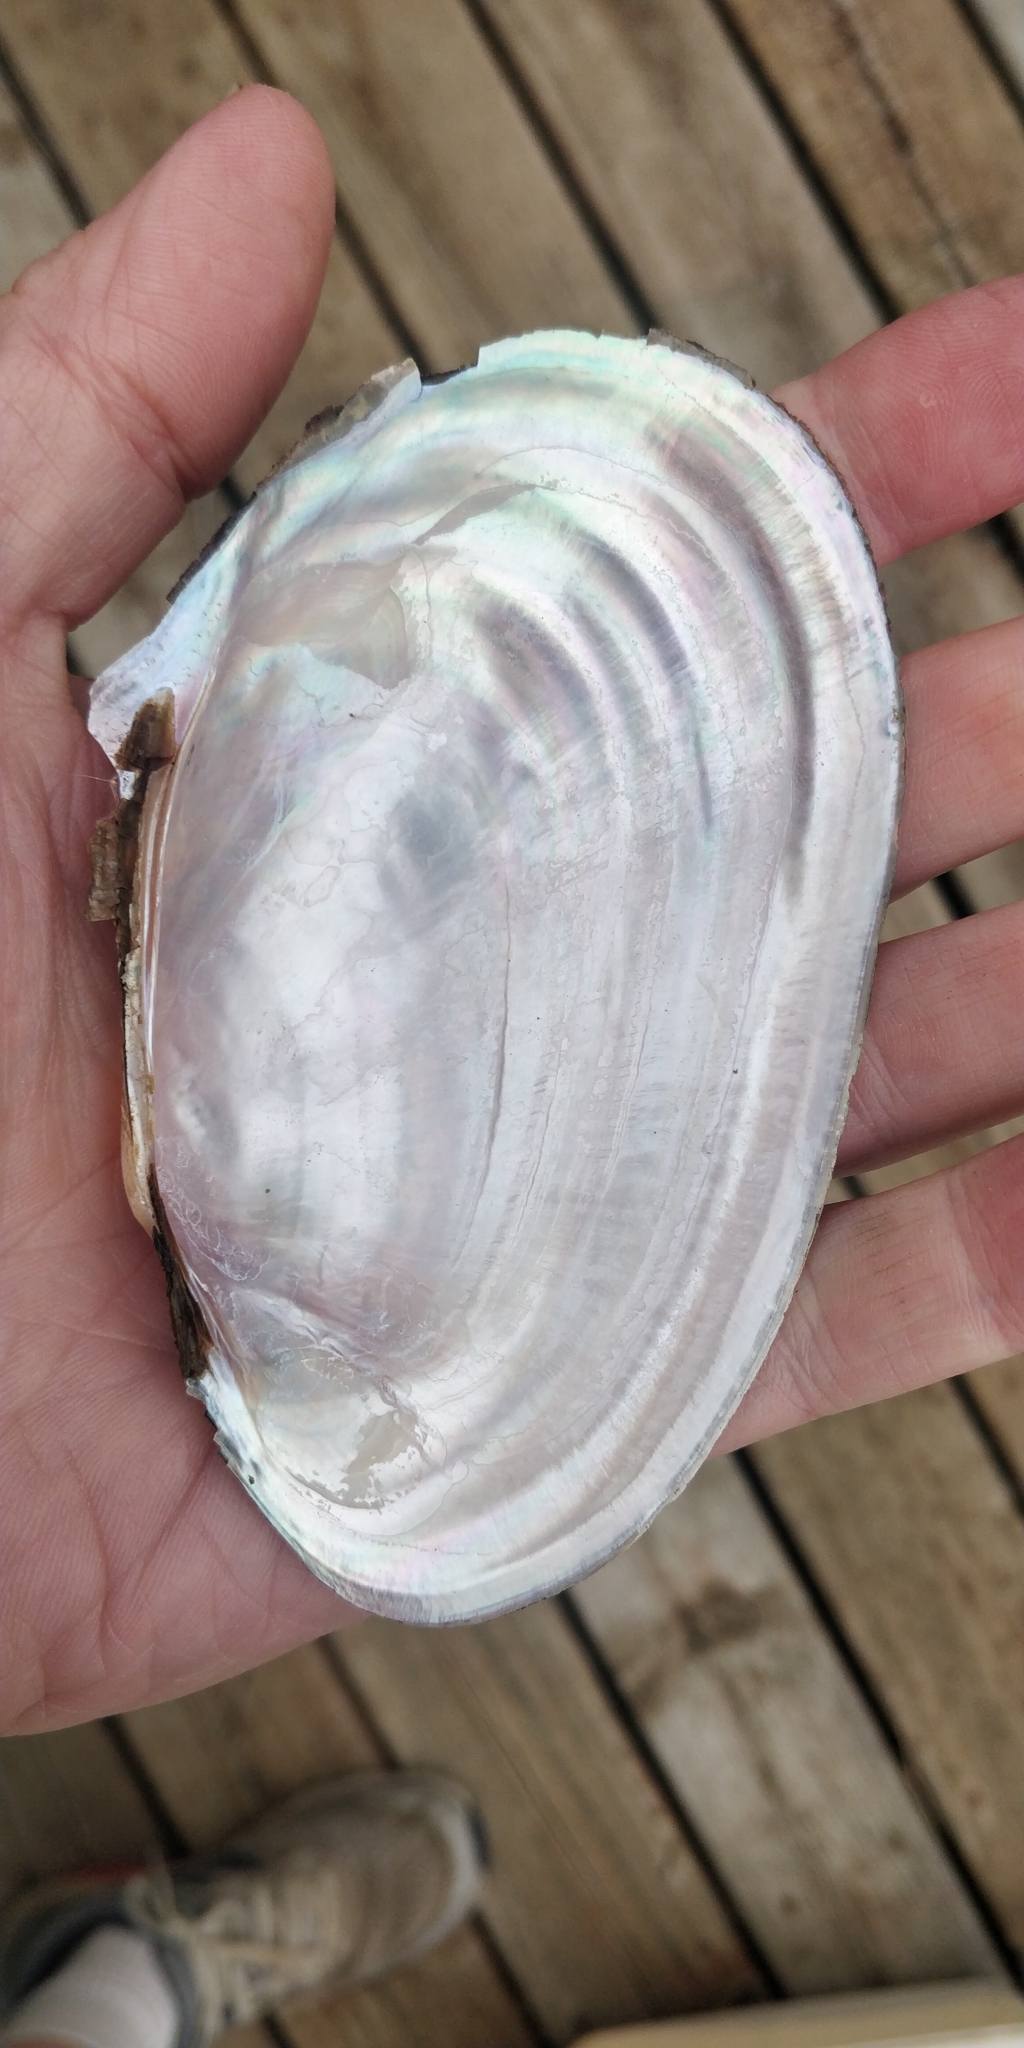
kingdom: Animalia
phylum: Mollusca
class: Bivalvia
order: Unionida
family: Unionidae
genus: Potamilus
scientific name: Potamilus ohiensis
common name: Pink papershell
